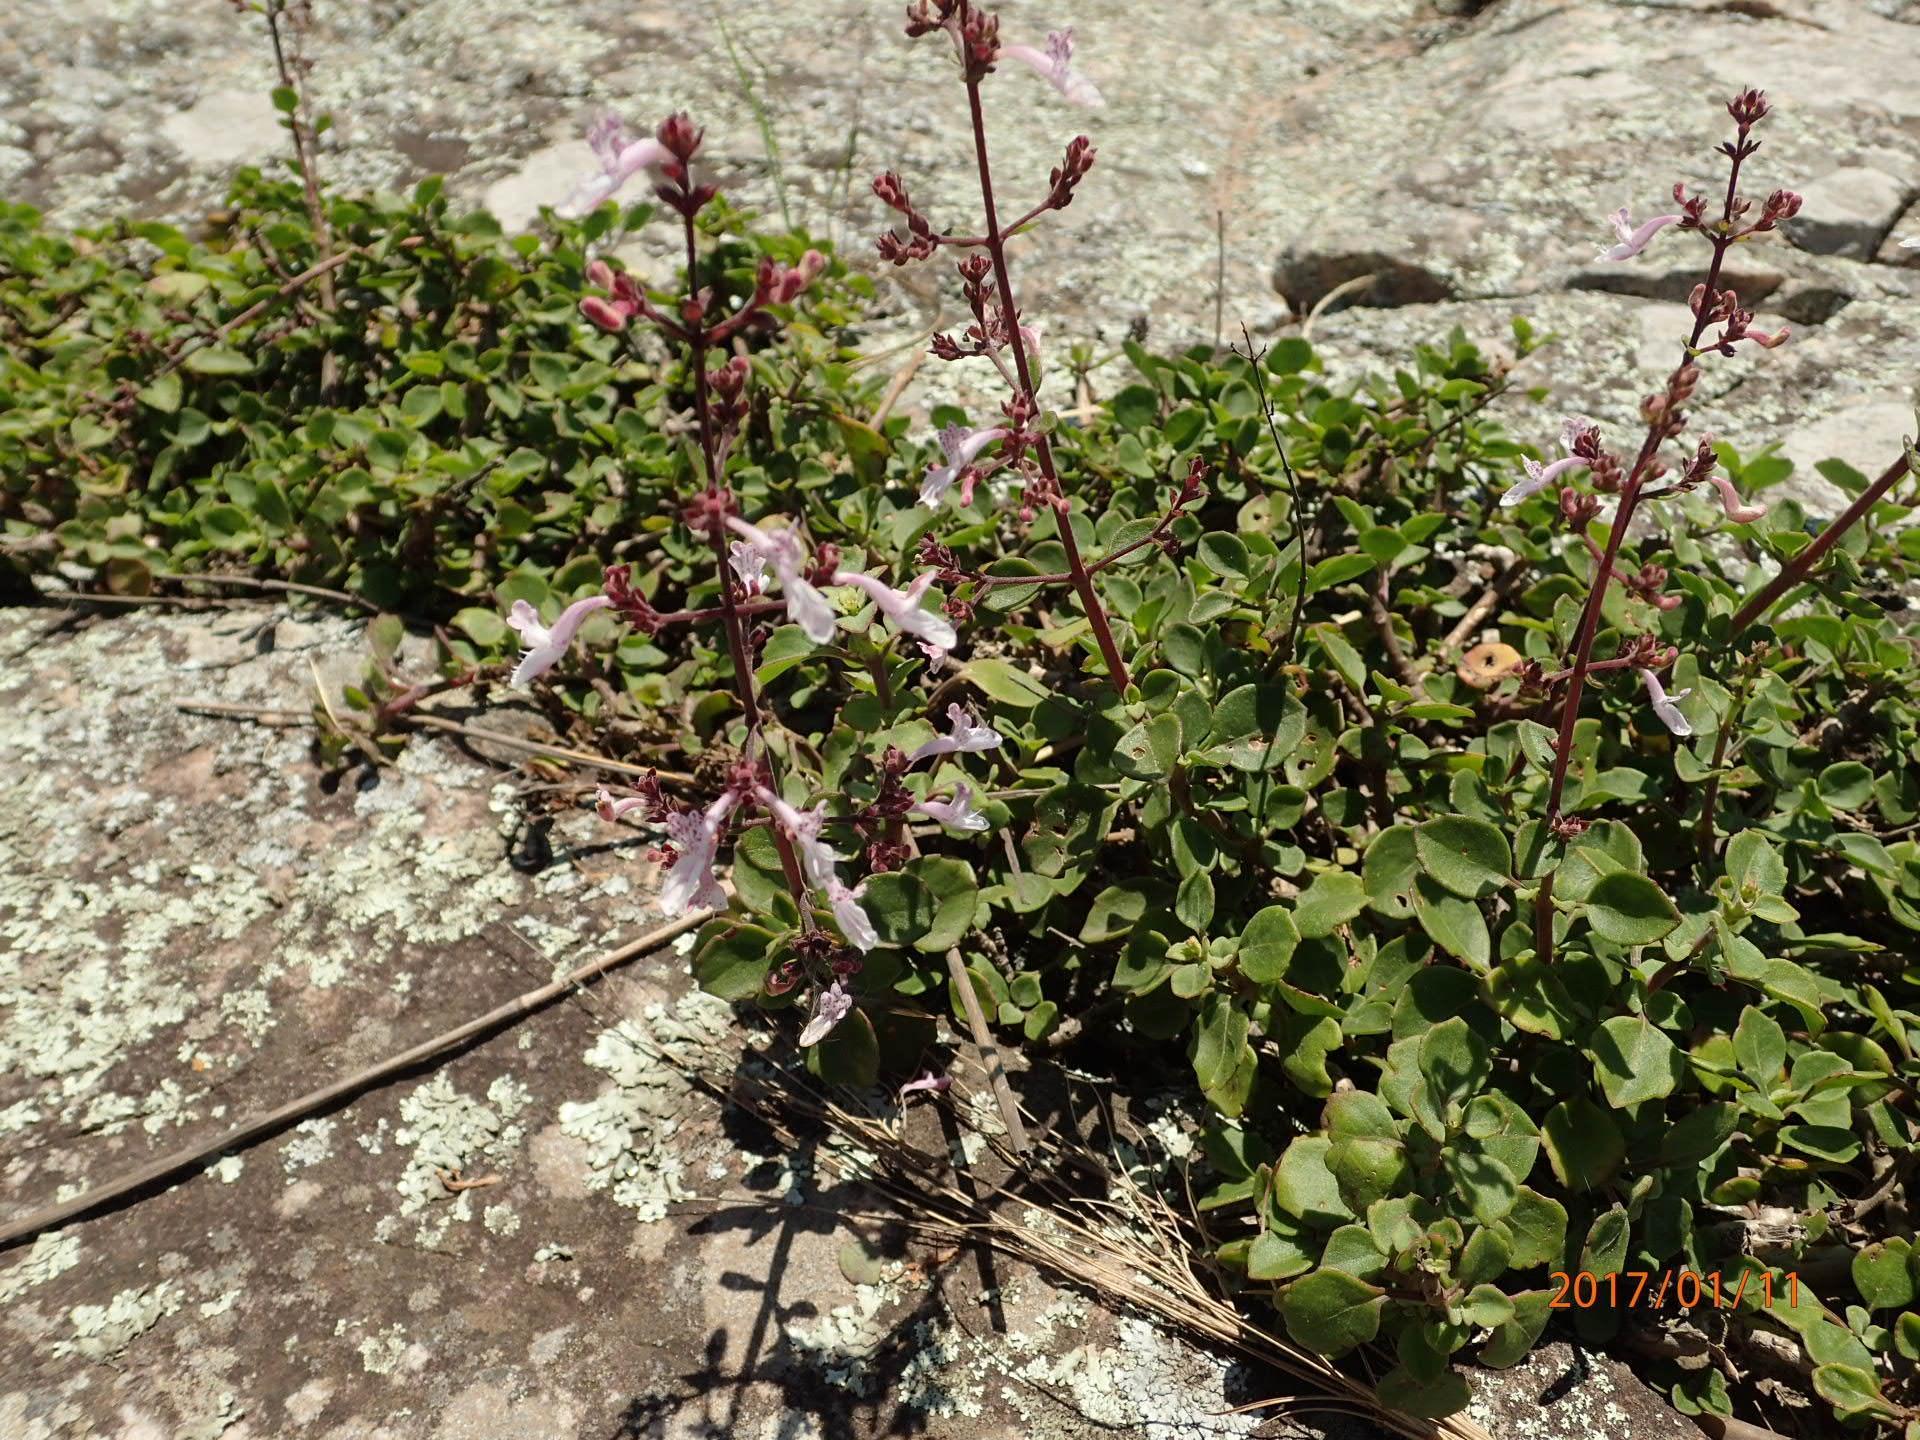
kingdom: Plantae
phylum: Tracheophyta
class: Magnoliopsida
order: Lamiales
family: Lamiaceae
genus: Aeollanthus
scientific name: Aeollanthus parvifolius
